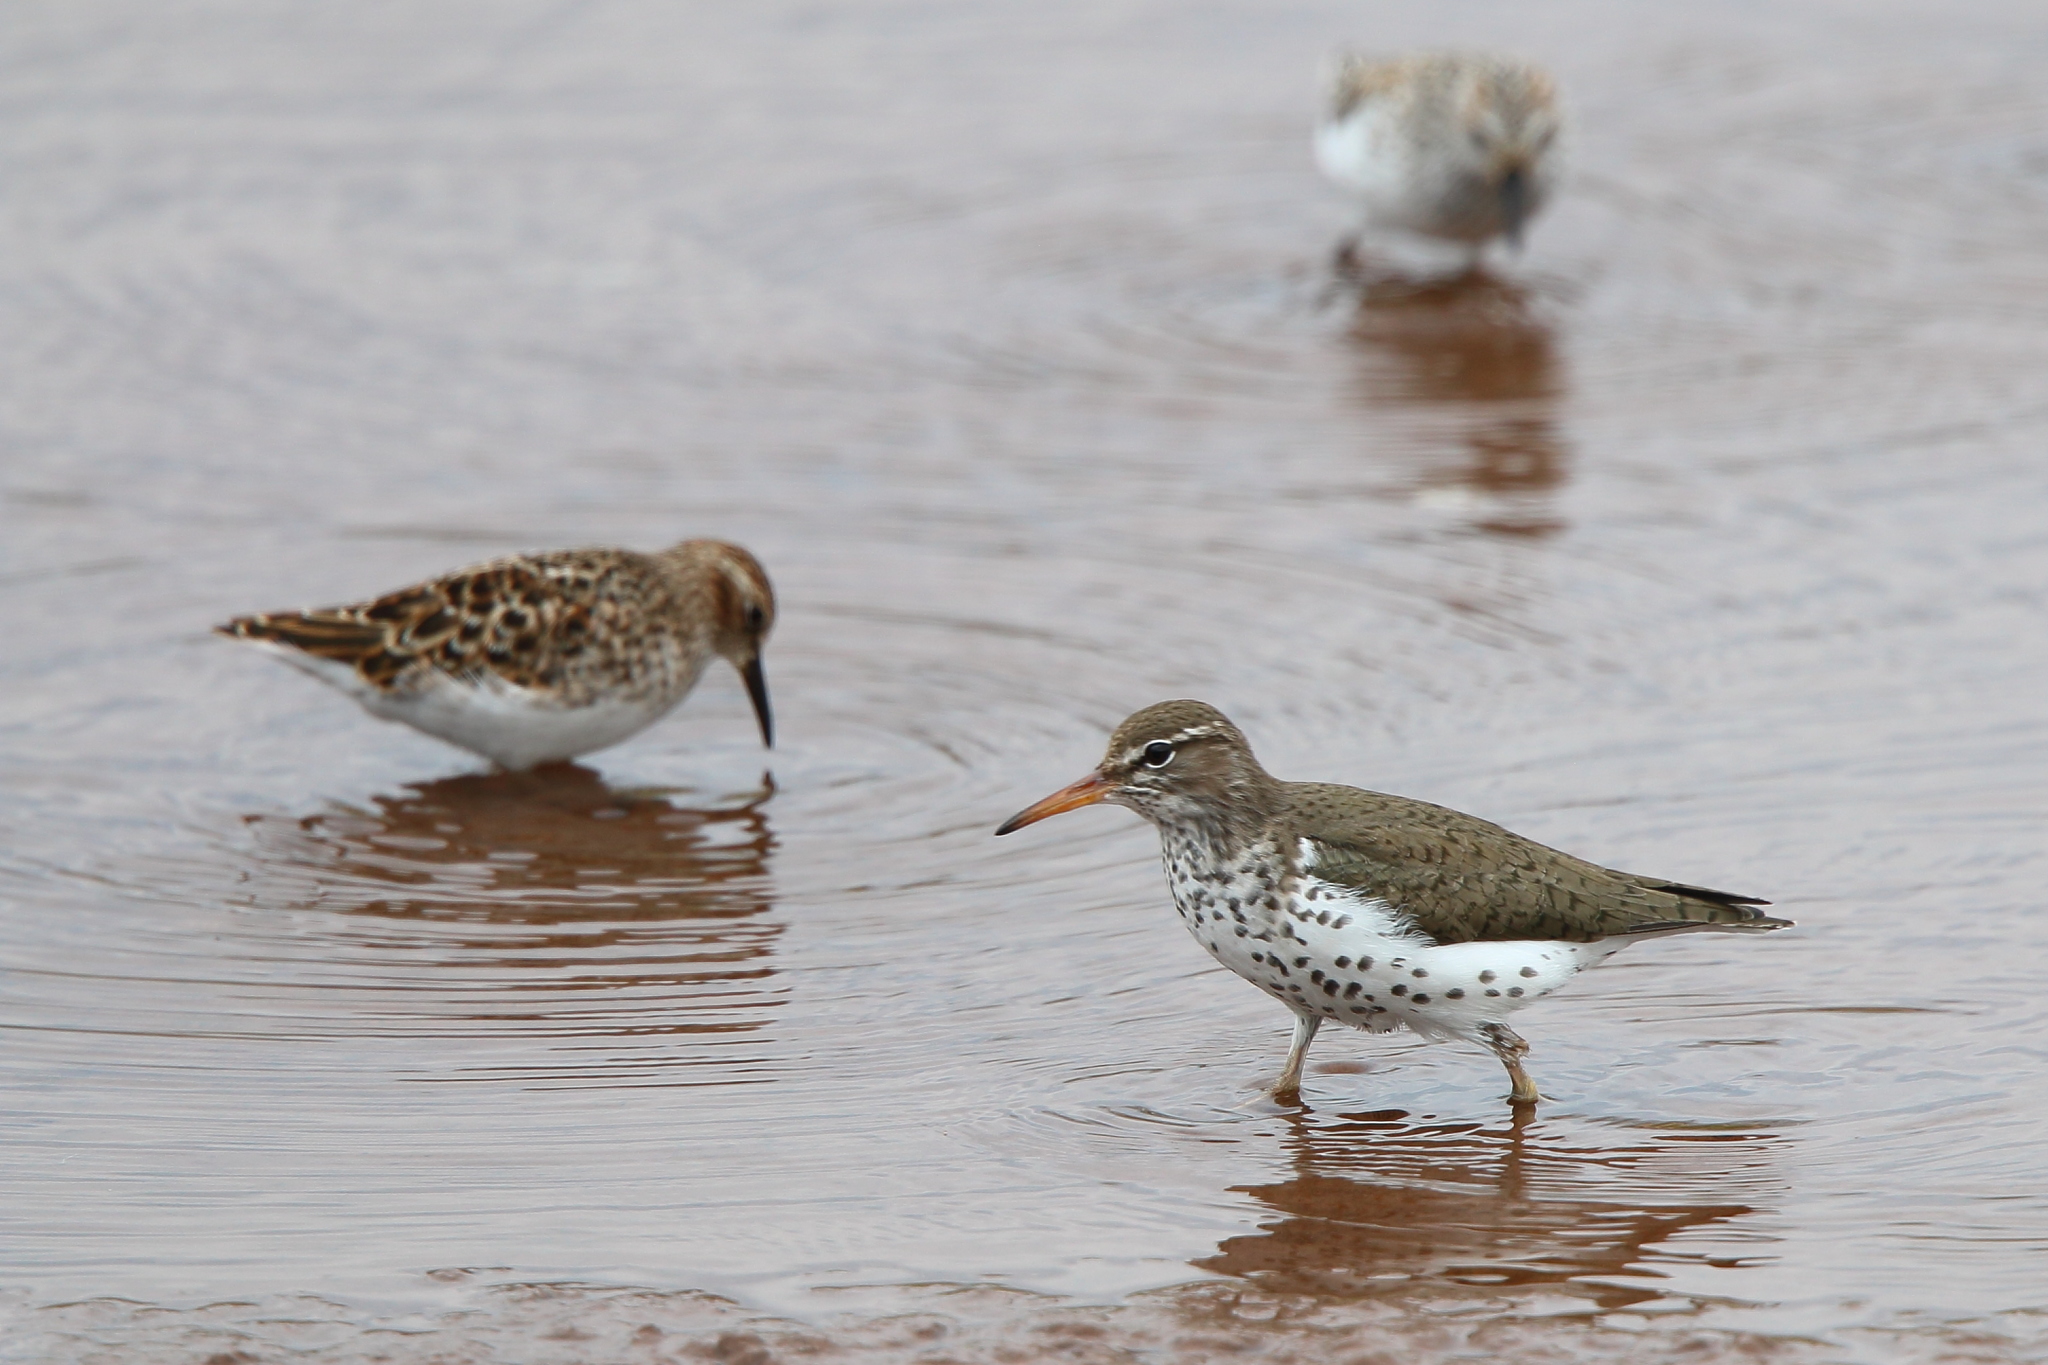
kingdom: Animalia
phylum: Chordata
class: Aves
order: Charadriiformes
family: Scolopacidae
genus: Actitis
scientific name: Actitis macularius
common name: Spotted sandpiper
